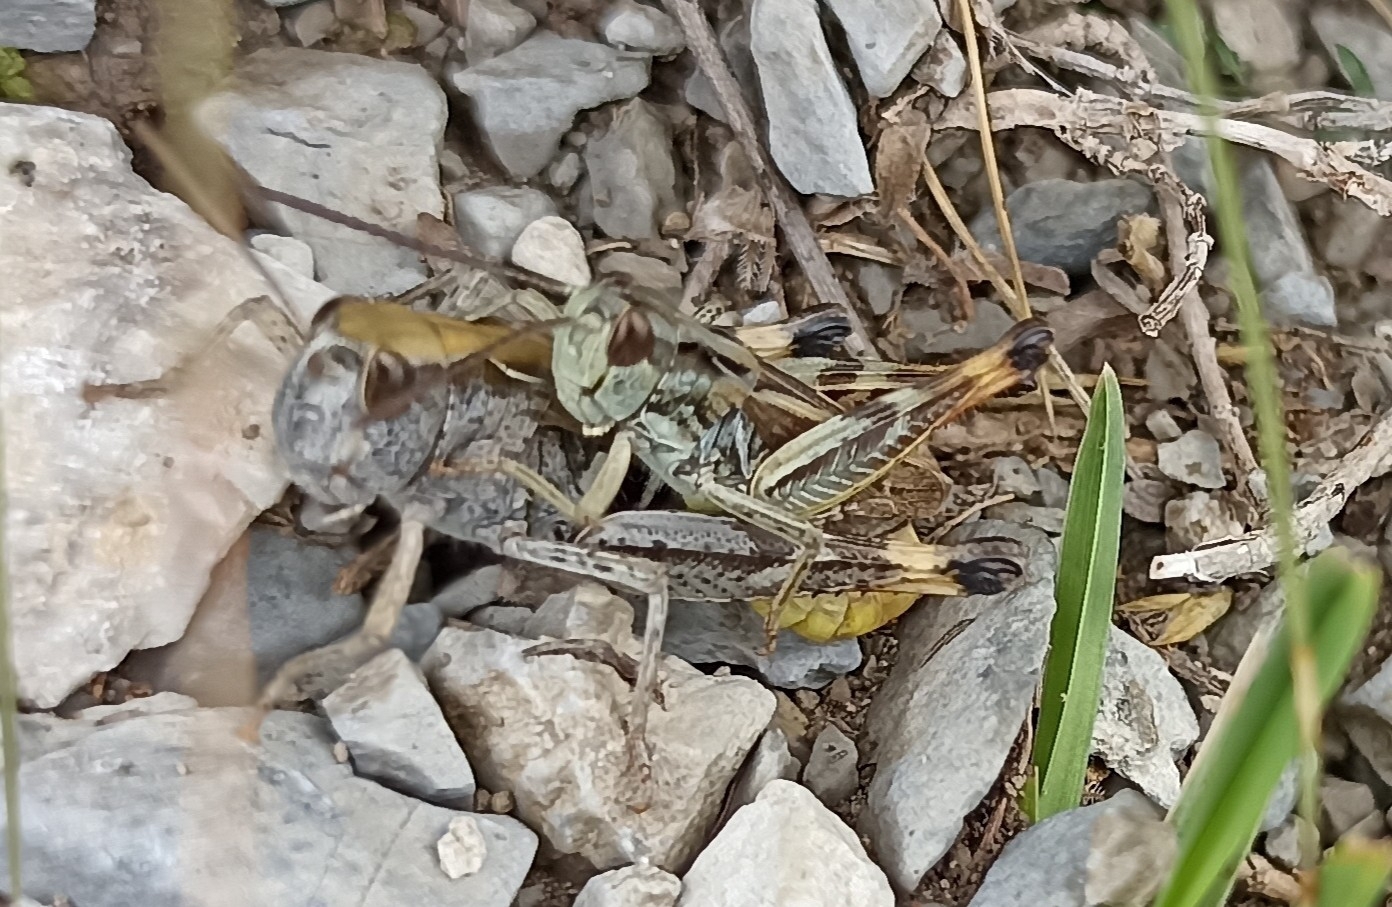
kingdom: Animalia
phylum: Arthropoda
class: Insecta
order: Orthoptera
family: Acrididae
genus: Chorthippus
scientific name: Chorthippus saulcyi
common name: French grasshopper
